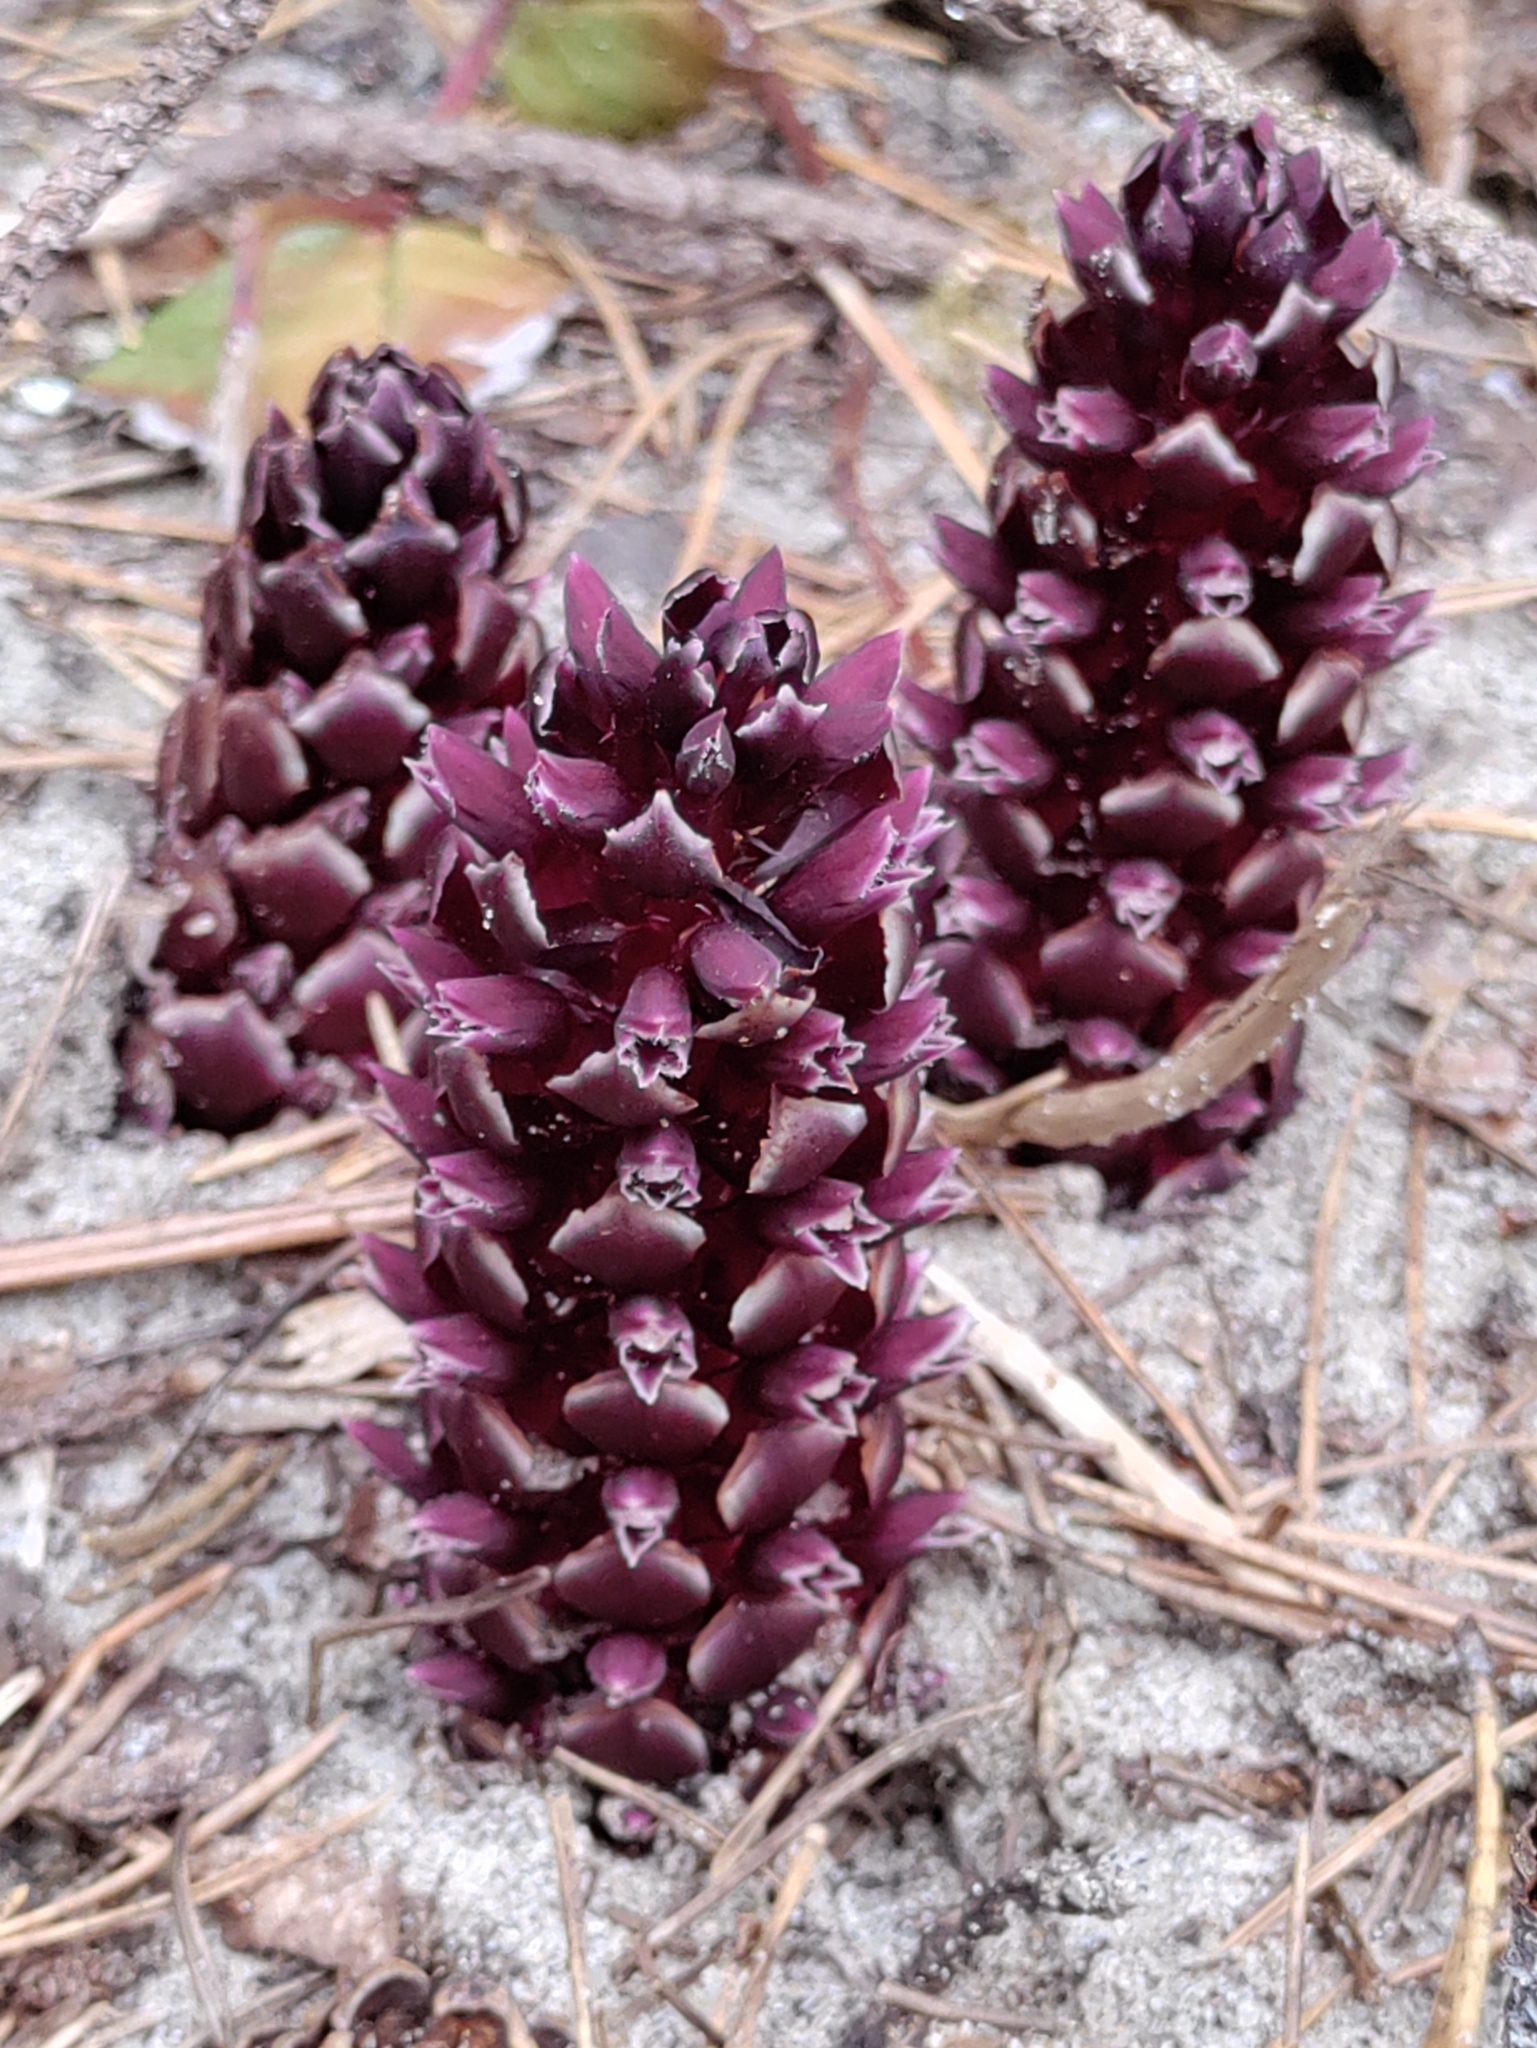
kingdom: Plantae
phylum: Tracheophyta
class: Magnoliopsida
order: Lamiales
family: Orobanchaceae
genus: Kopsiopsis
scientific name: Kopsiopsis hookeri
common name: Hooker's groundcone
